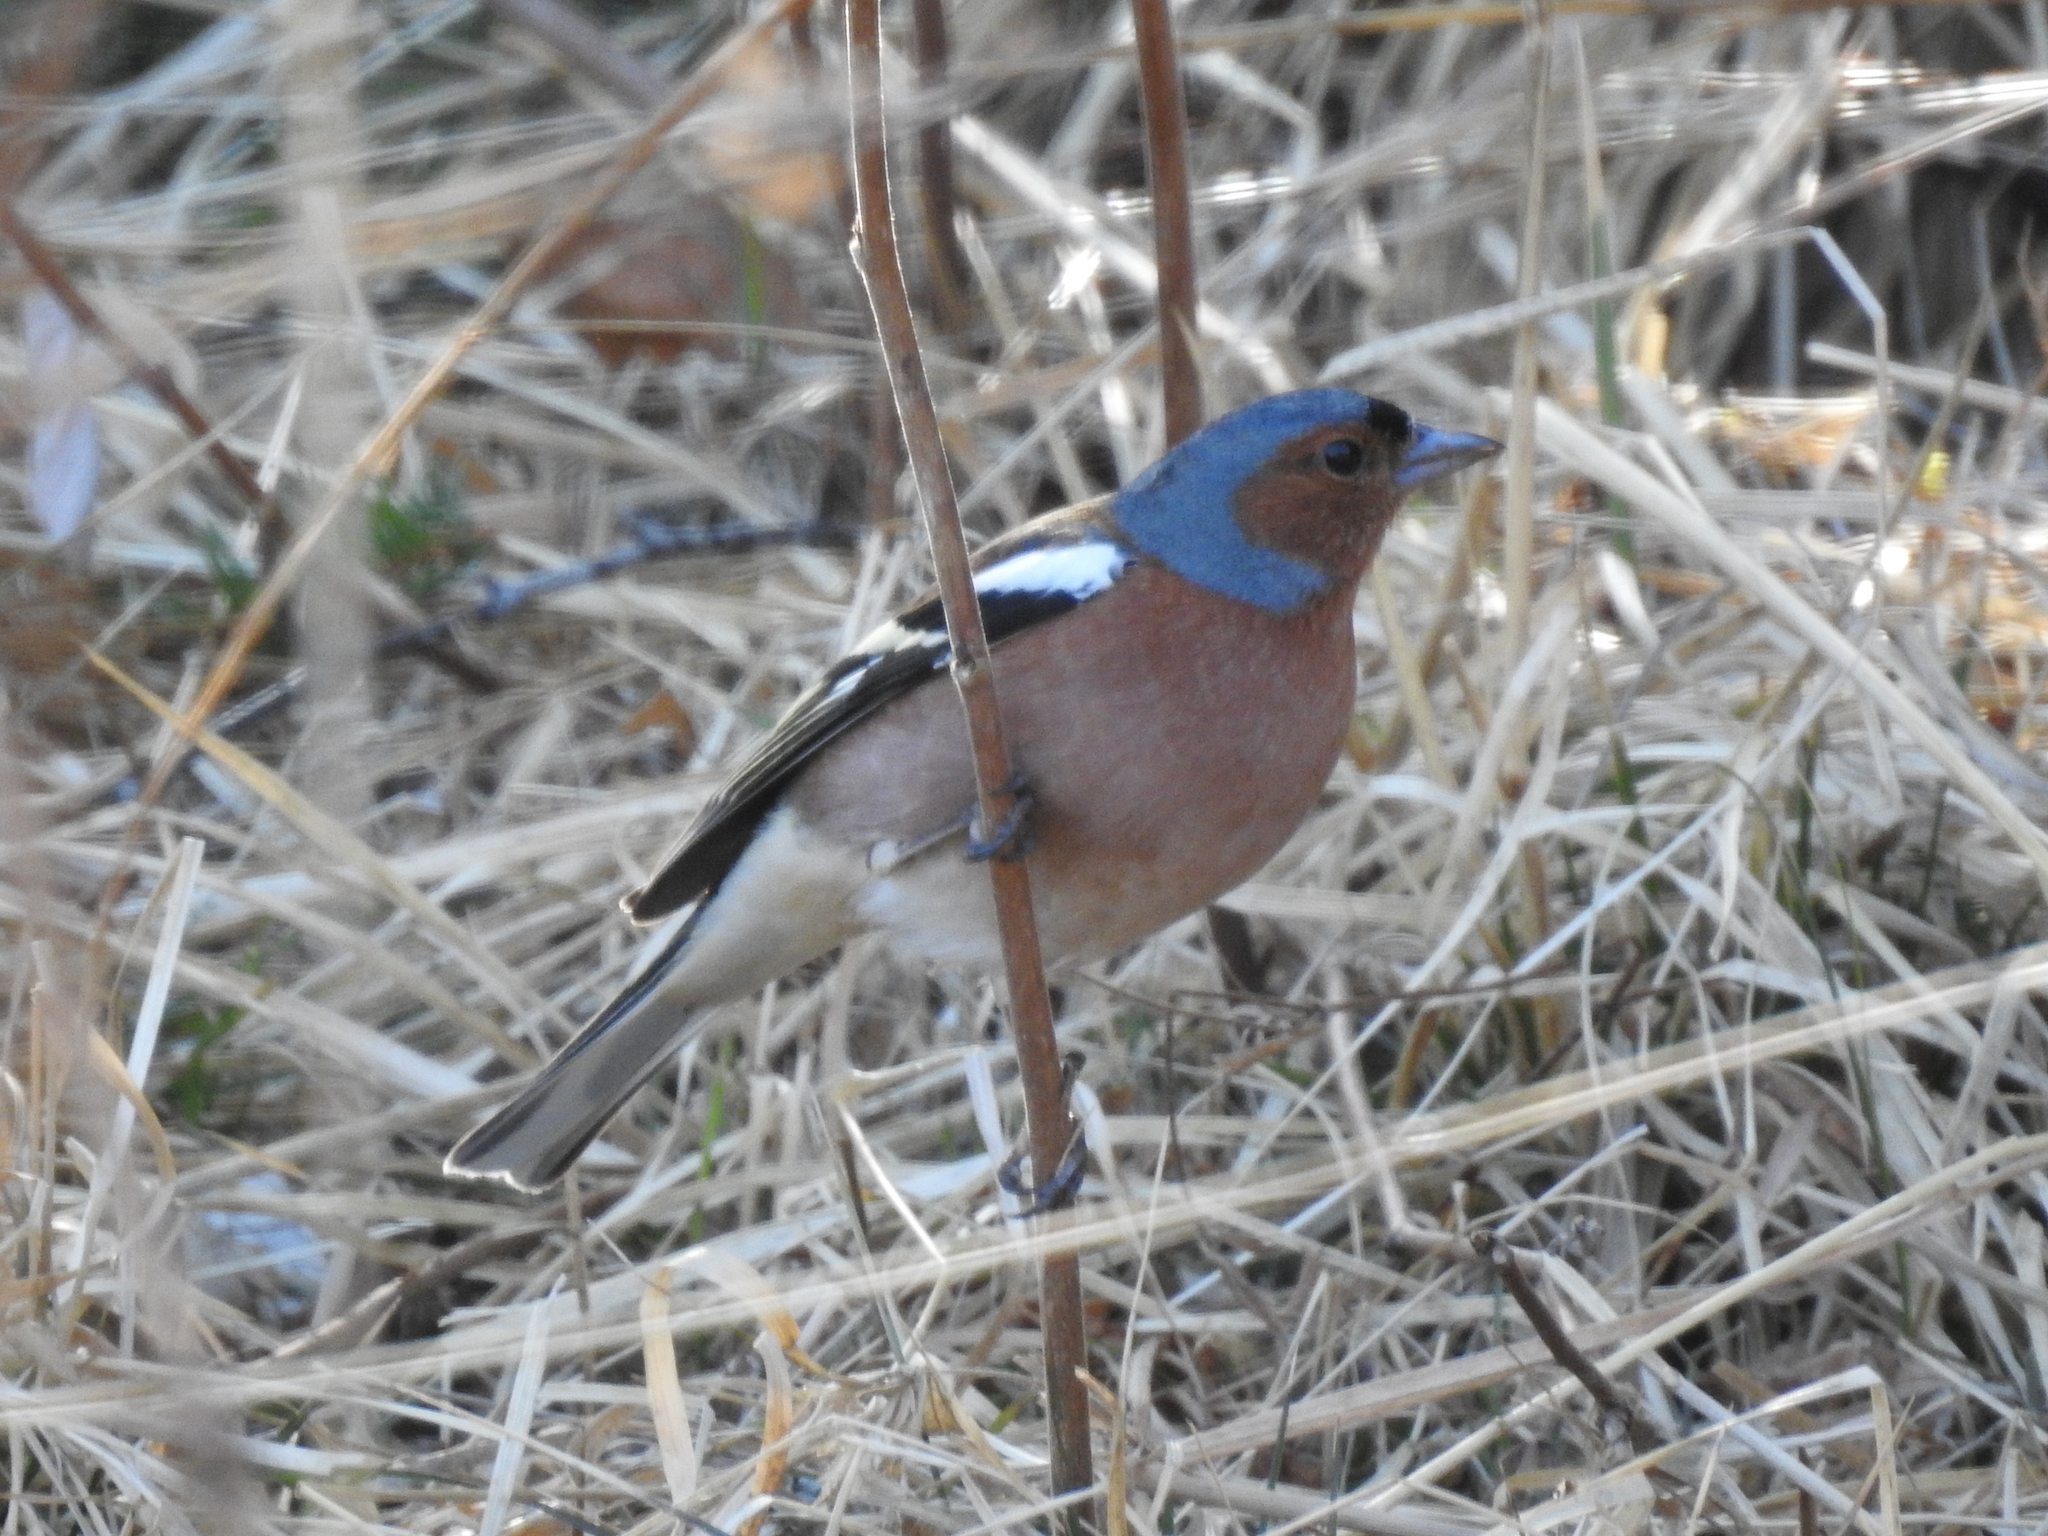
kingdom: Animalia
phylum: Chordata
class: Aves
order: Passeriformes
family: Fringillidae
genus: Fringilla
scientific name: Fringilla coelebs
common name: Common chaffinch
